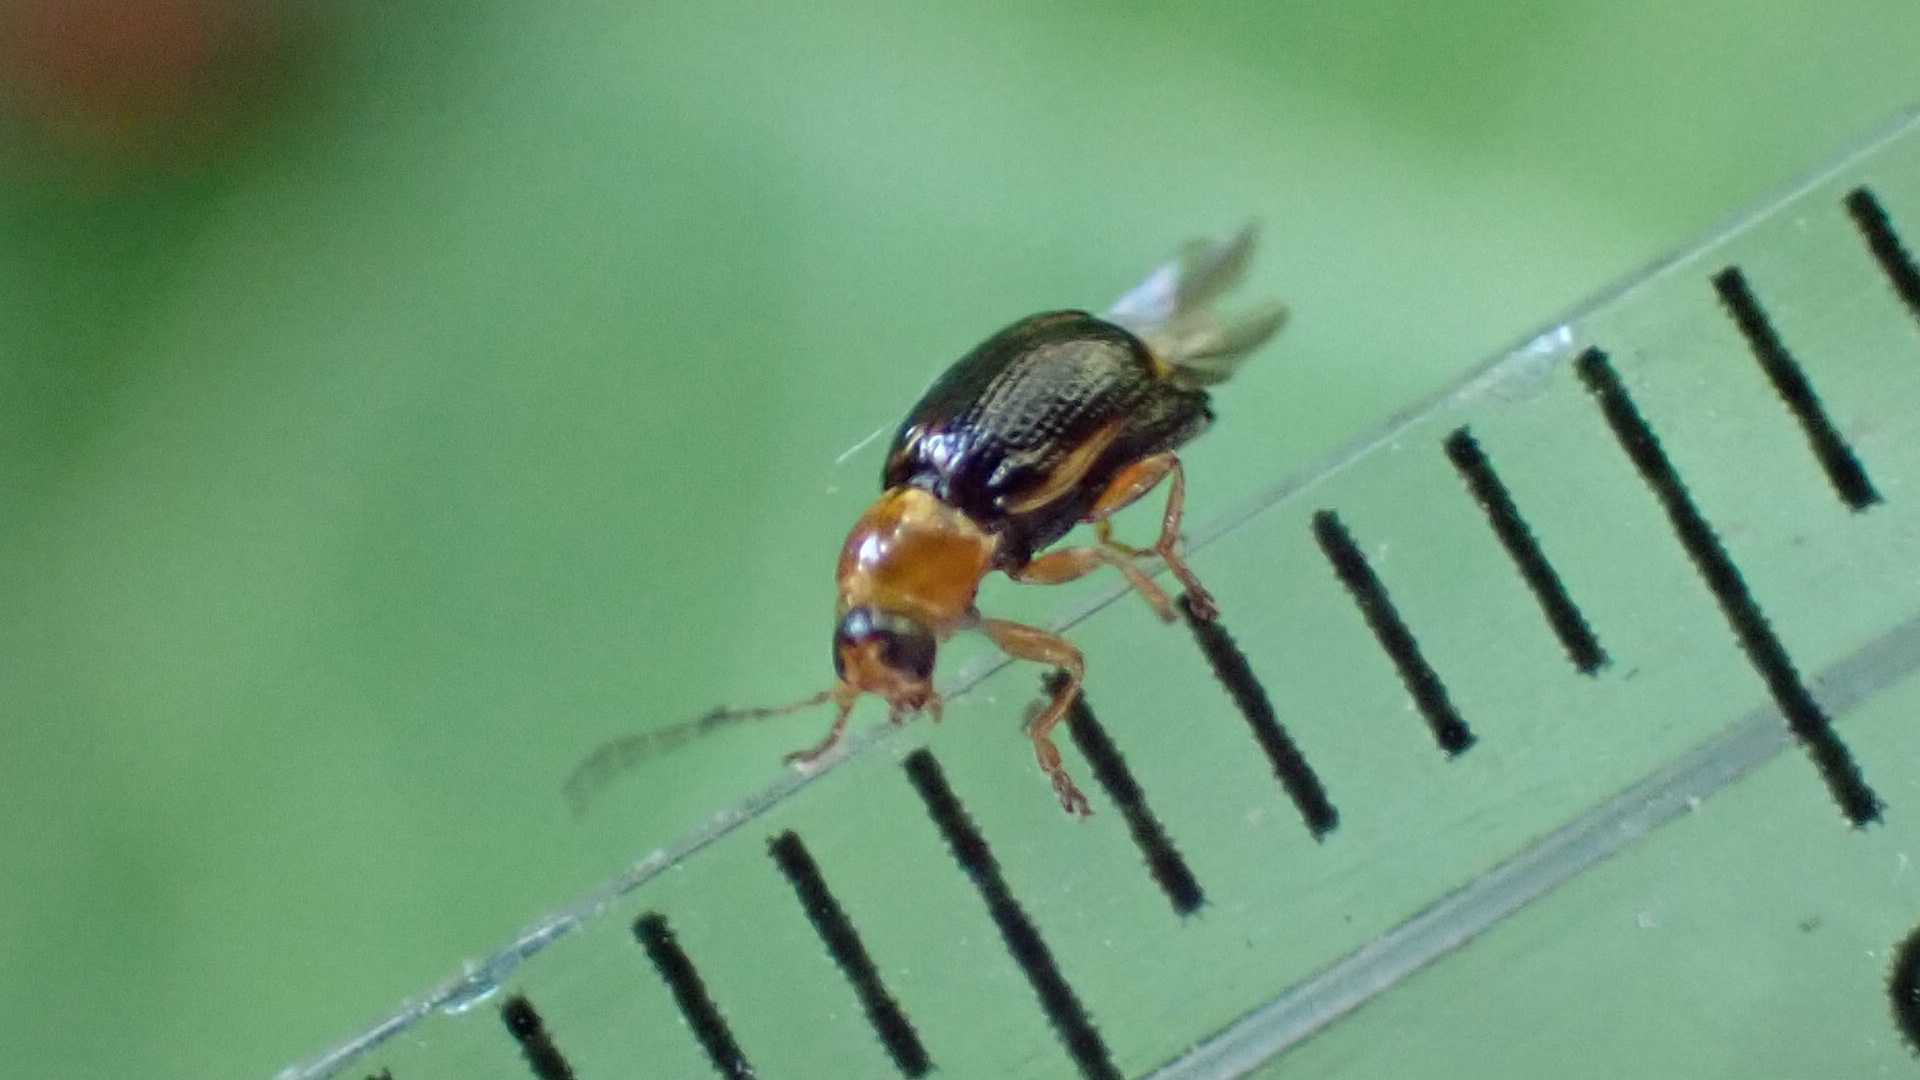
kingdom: Animalia
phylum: Arthropoda
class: Insecta
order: Coleoptera
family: Chrysomelidae
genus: Cryptocephalus
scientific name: Cryptocephalus pusillus
